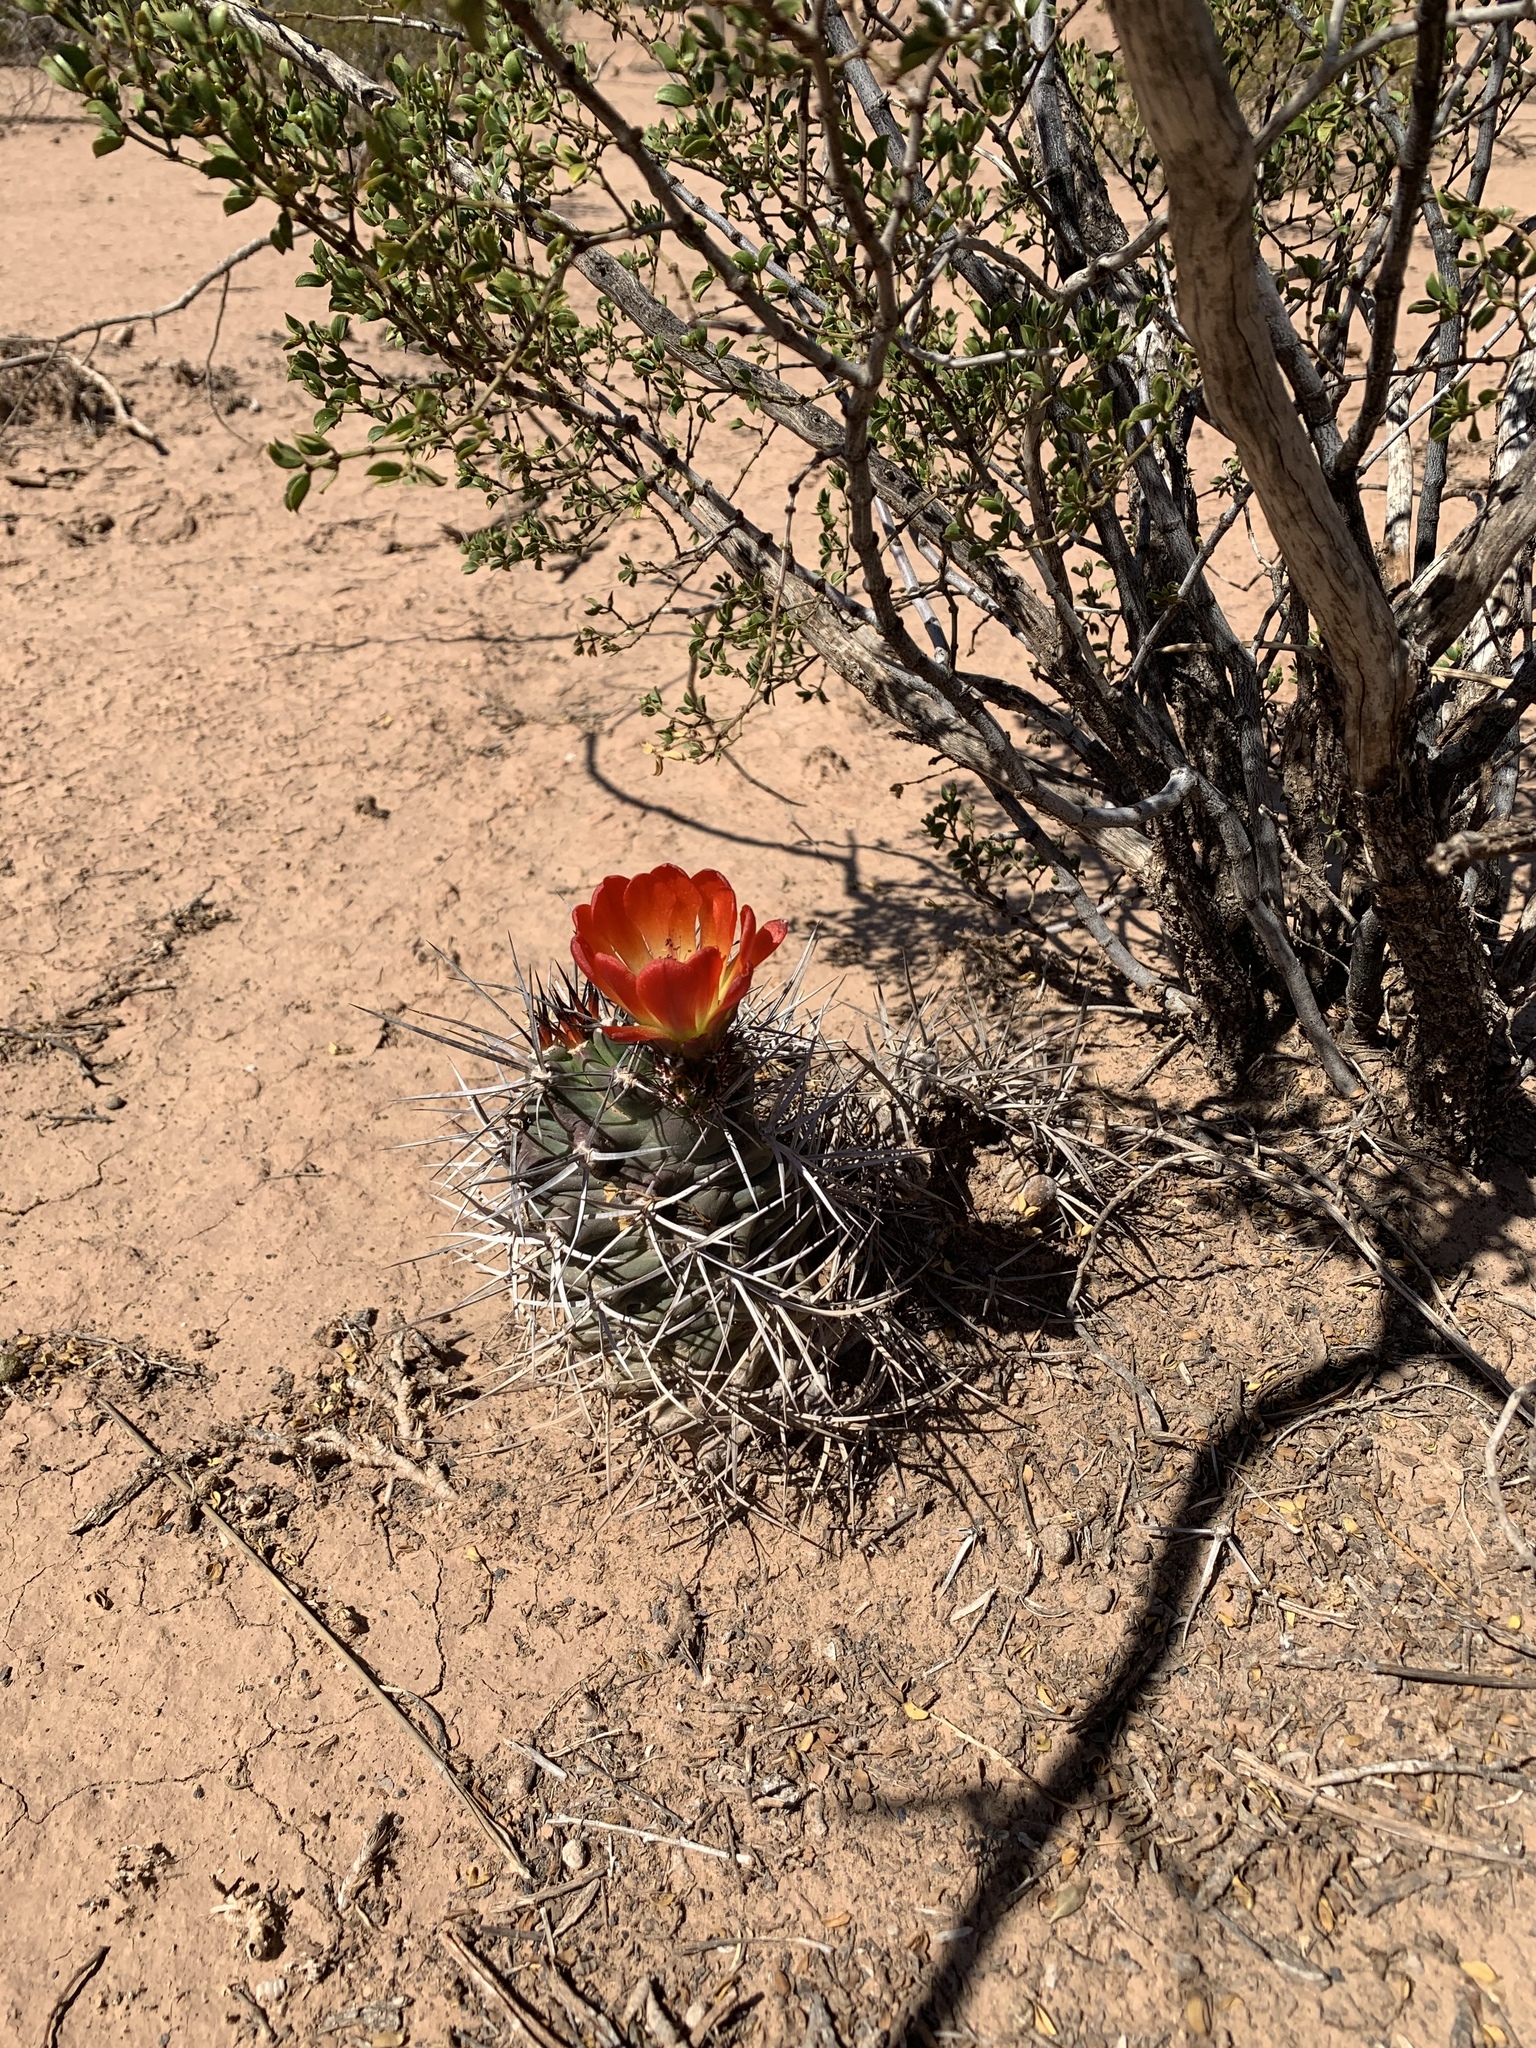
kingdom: Plantae
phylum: Tracheophyta
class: Magnoliopsida
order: Caryophyllales
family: Cactaceae
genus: Echinocereus
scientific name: Echinocereus triglochidiatus
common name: Claretcup hedgehog
